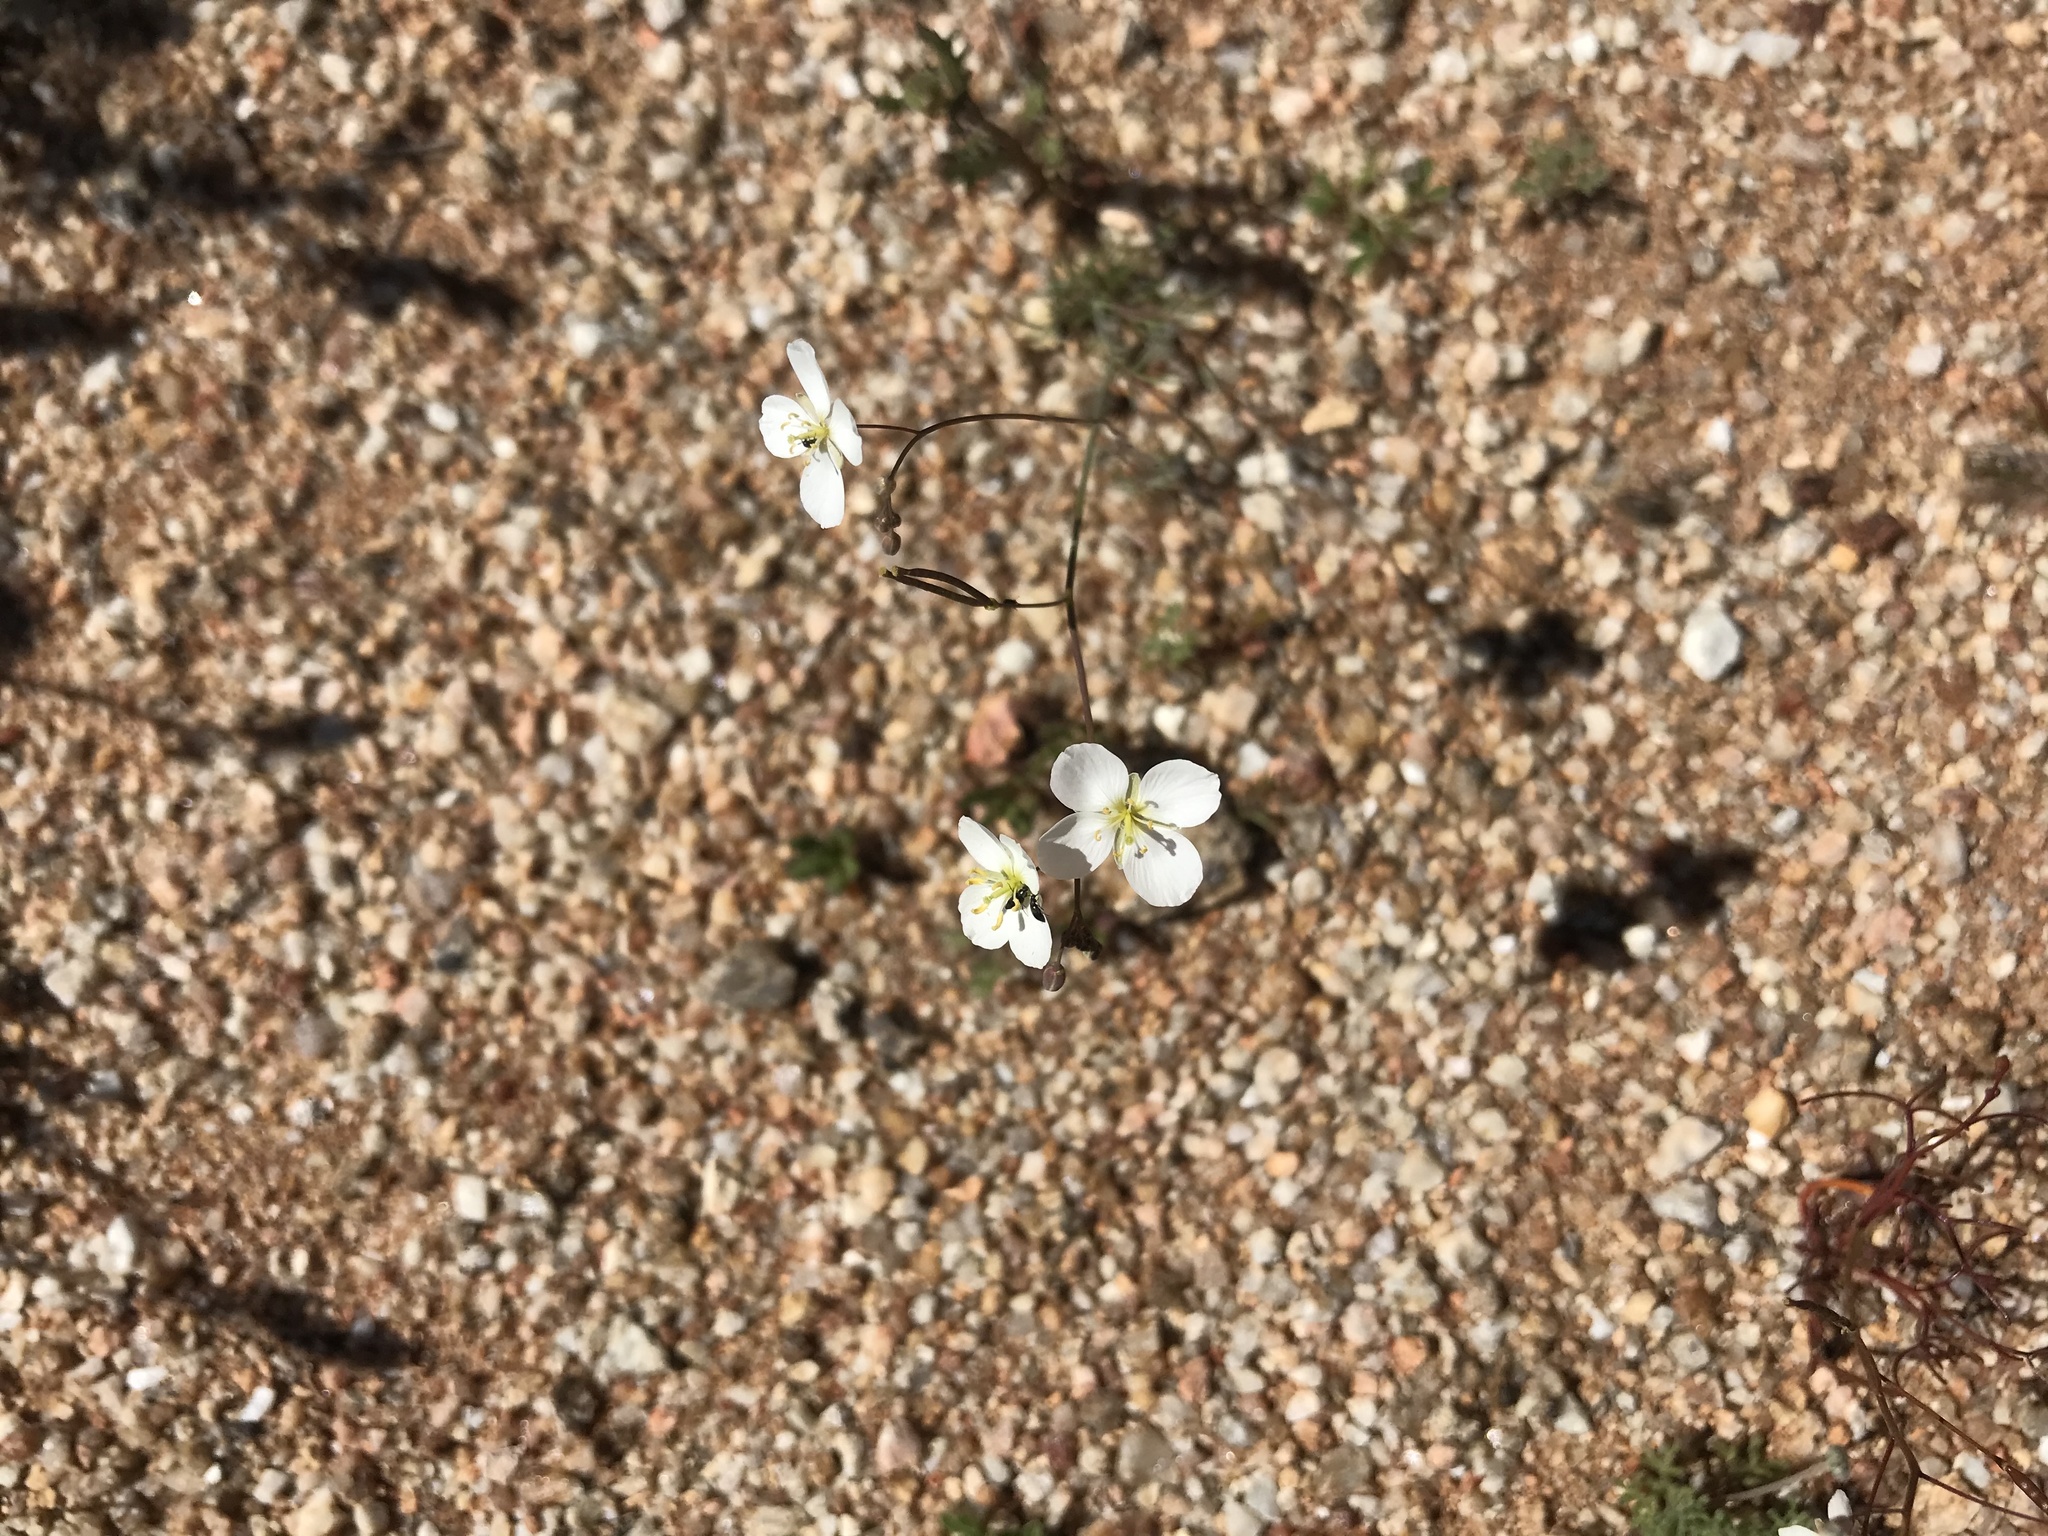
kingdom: Plantae
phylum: Tracheophyta
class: Magnoliopsida
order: Brassicales
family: Brassicaceae
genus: Heliophila
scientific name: Heliophila seselifolia
